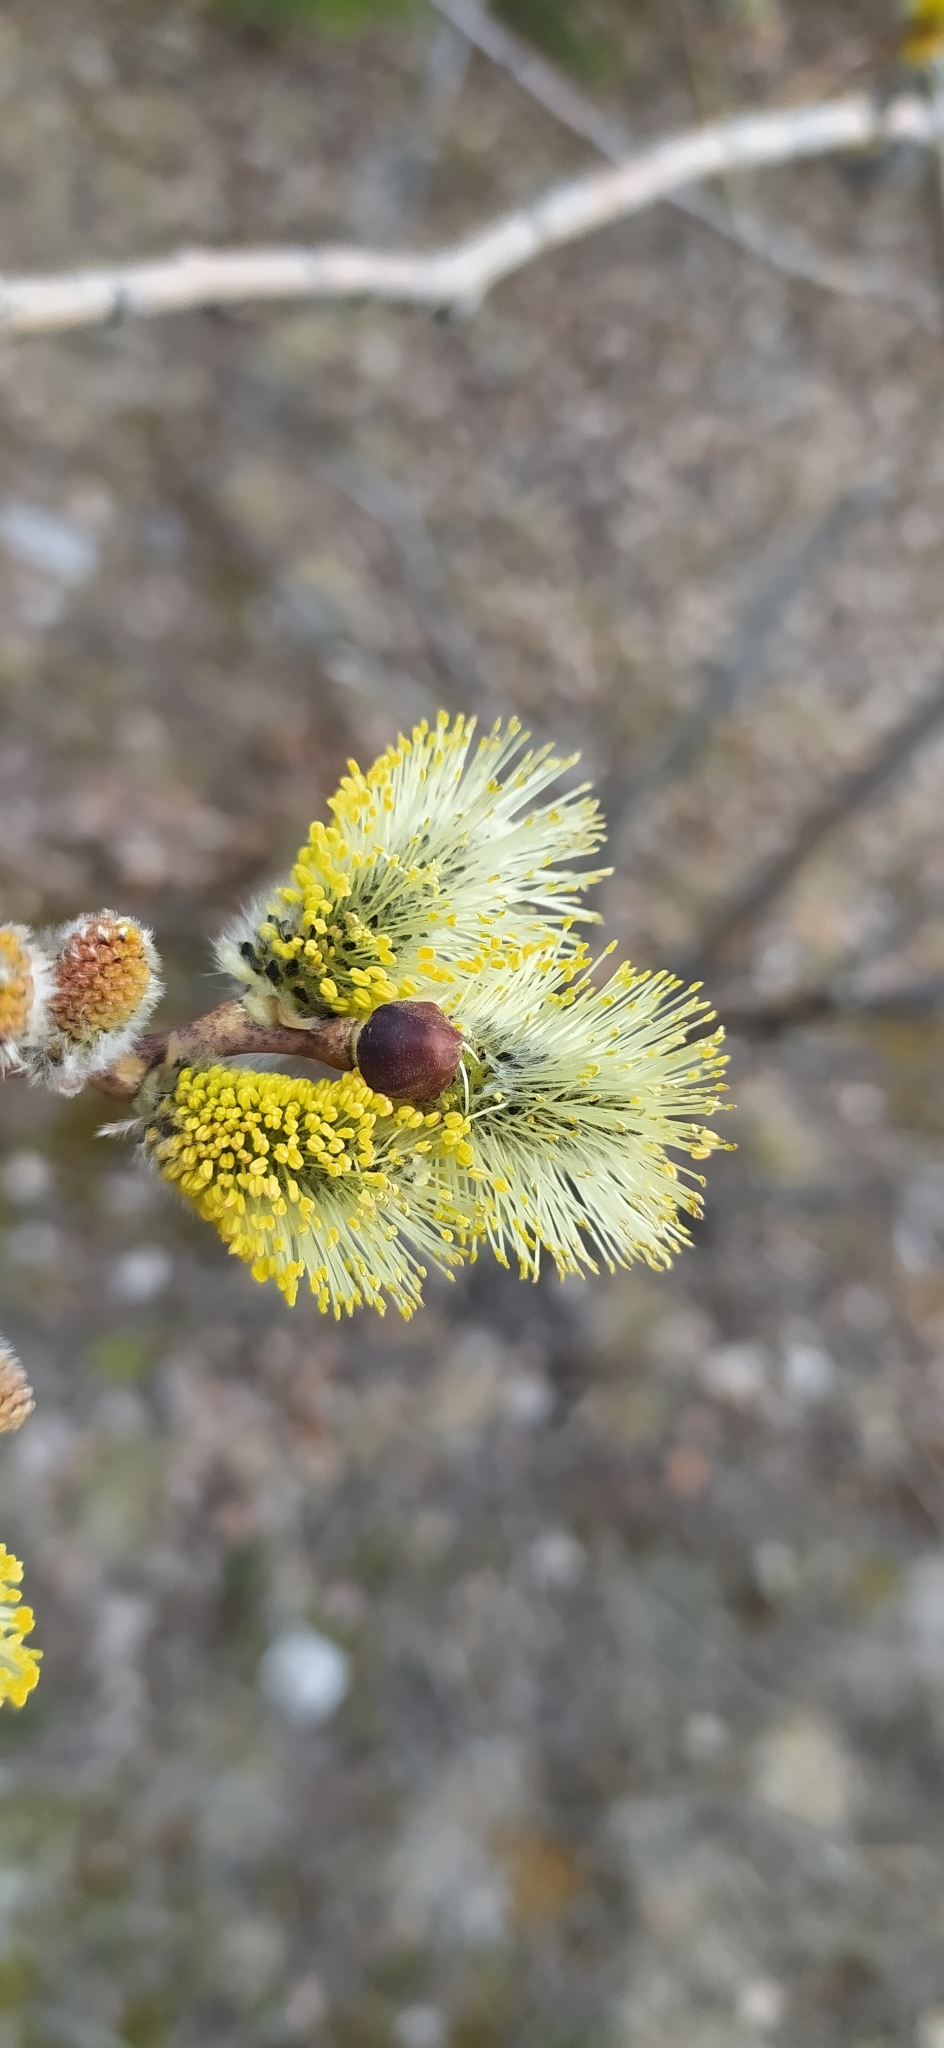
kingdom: Plantae
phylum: Tracheophyta
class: Magnoliopsida
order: Malpighiales
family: Salicaceae
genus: Salix
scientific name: Salix caprea
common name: Goat willow
